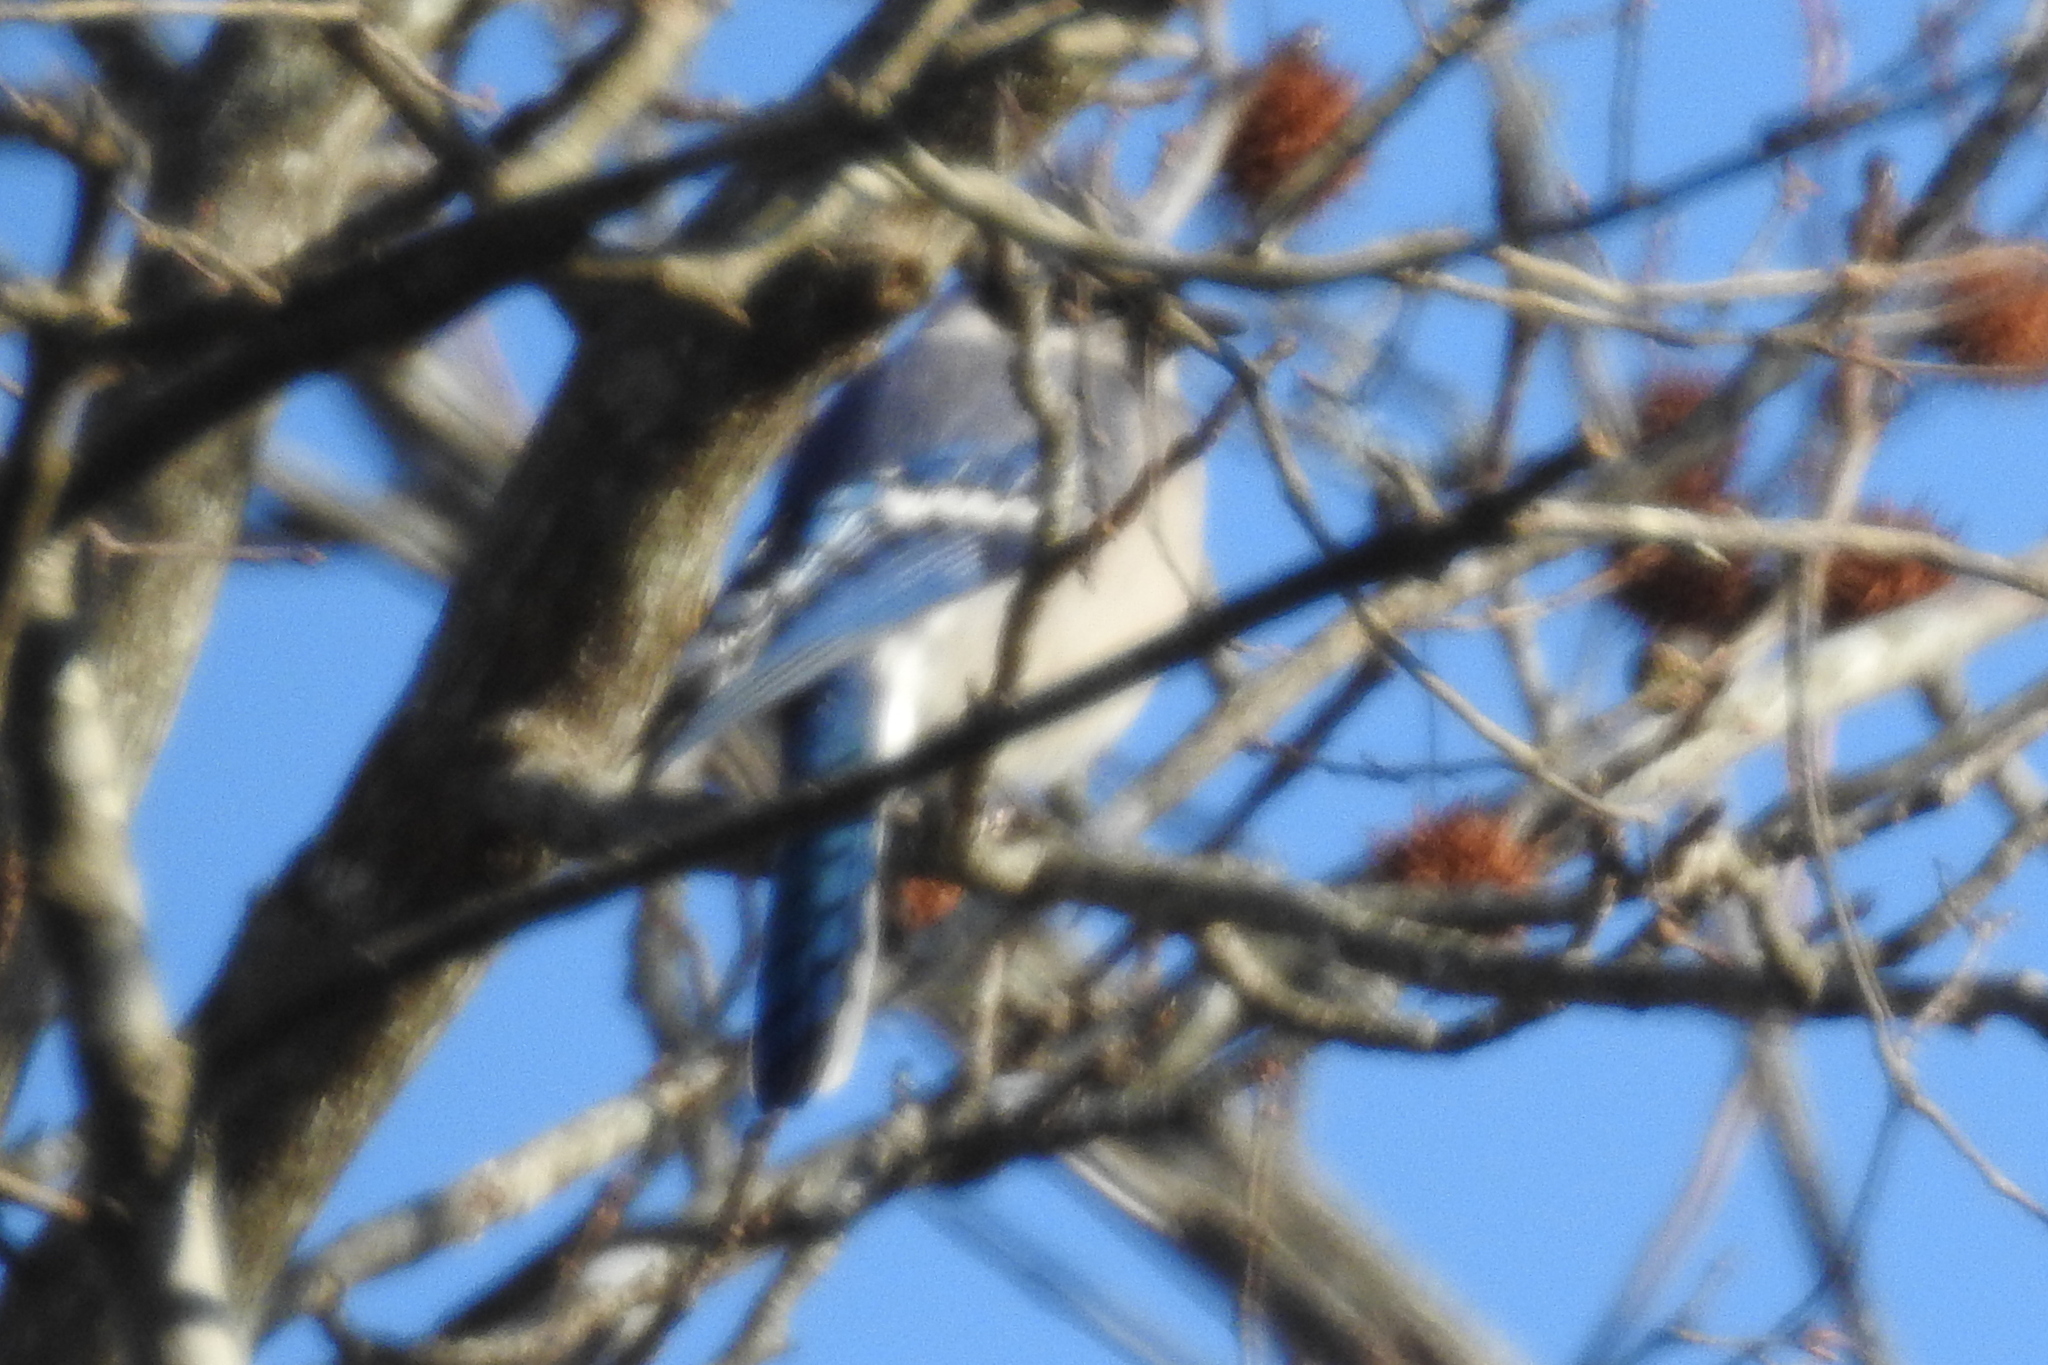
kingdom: Animalia
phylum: Chordata
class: Aves
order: Passeriformes
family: Corvidae
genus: Cyanocitta
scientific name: Cyanocitta cristata
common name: Blue jay
